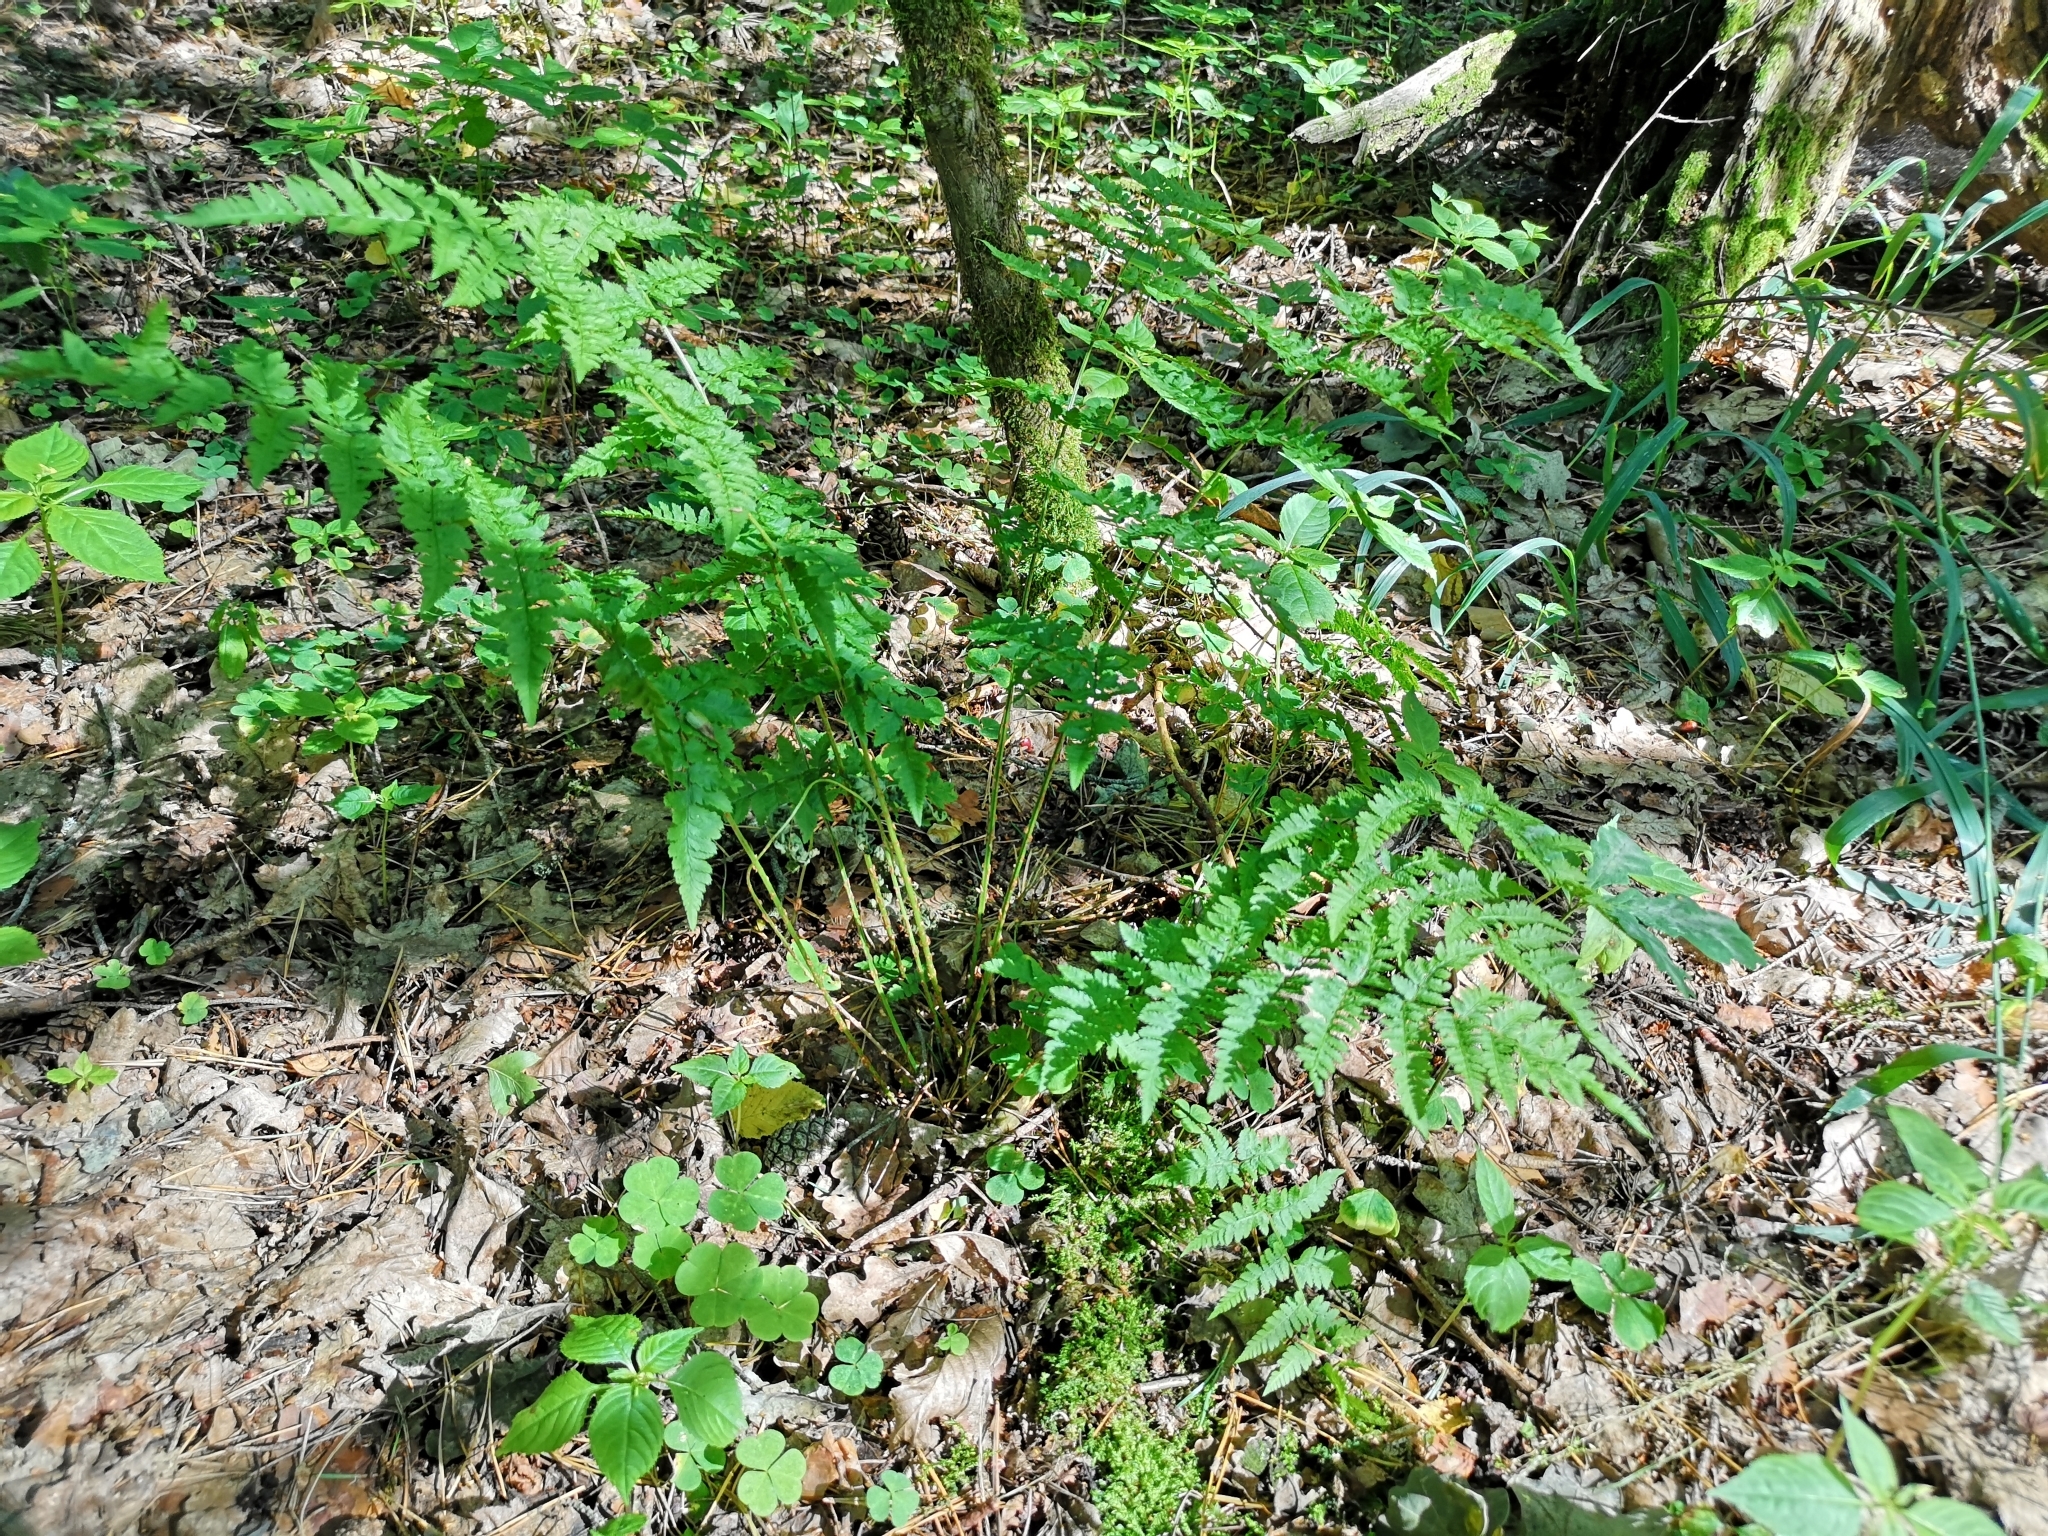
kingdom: Plantae
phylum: Tracheophyta
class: Polypodiopsida
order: Polypodiales
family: Dryopteridaceae
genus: Dryopteris
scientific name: Dryopteris carthusiana
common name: Narrow buckler-fern
